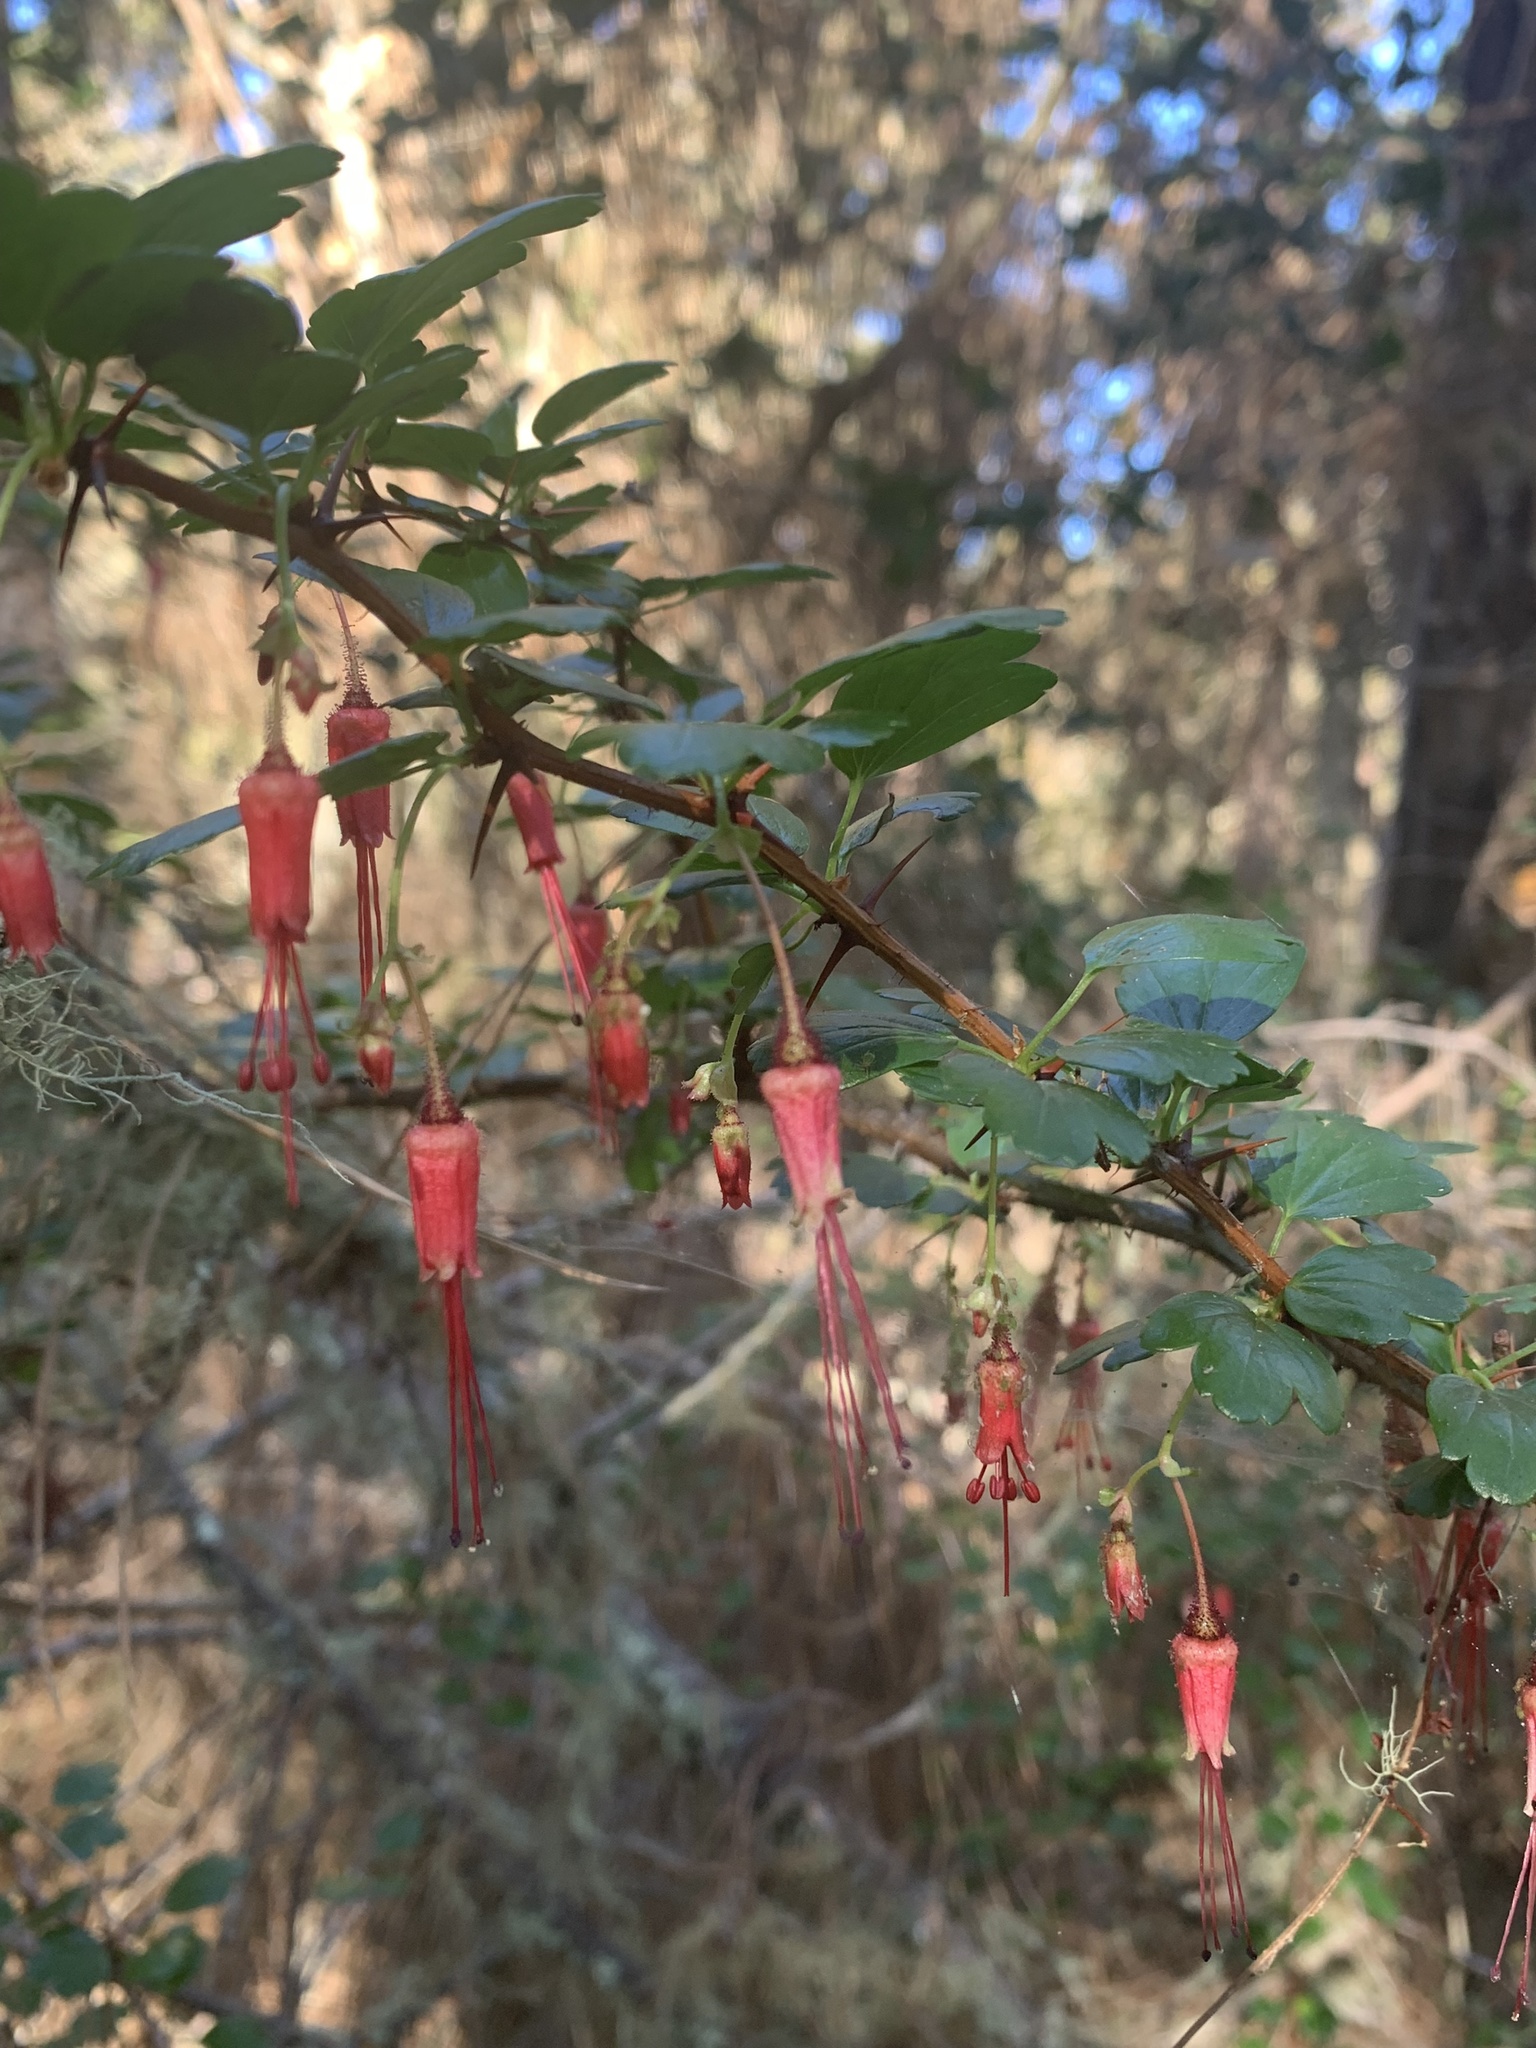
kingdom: Plantae
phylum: Tracheophyta
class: Magnoliopsida
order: Saxifragales
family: Grossulariaceae
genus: Ribes
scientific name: Ribes speciosum
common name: Fuchsia-flower gooseberry
